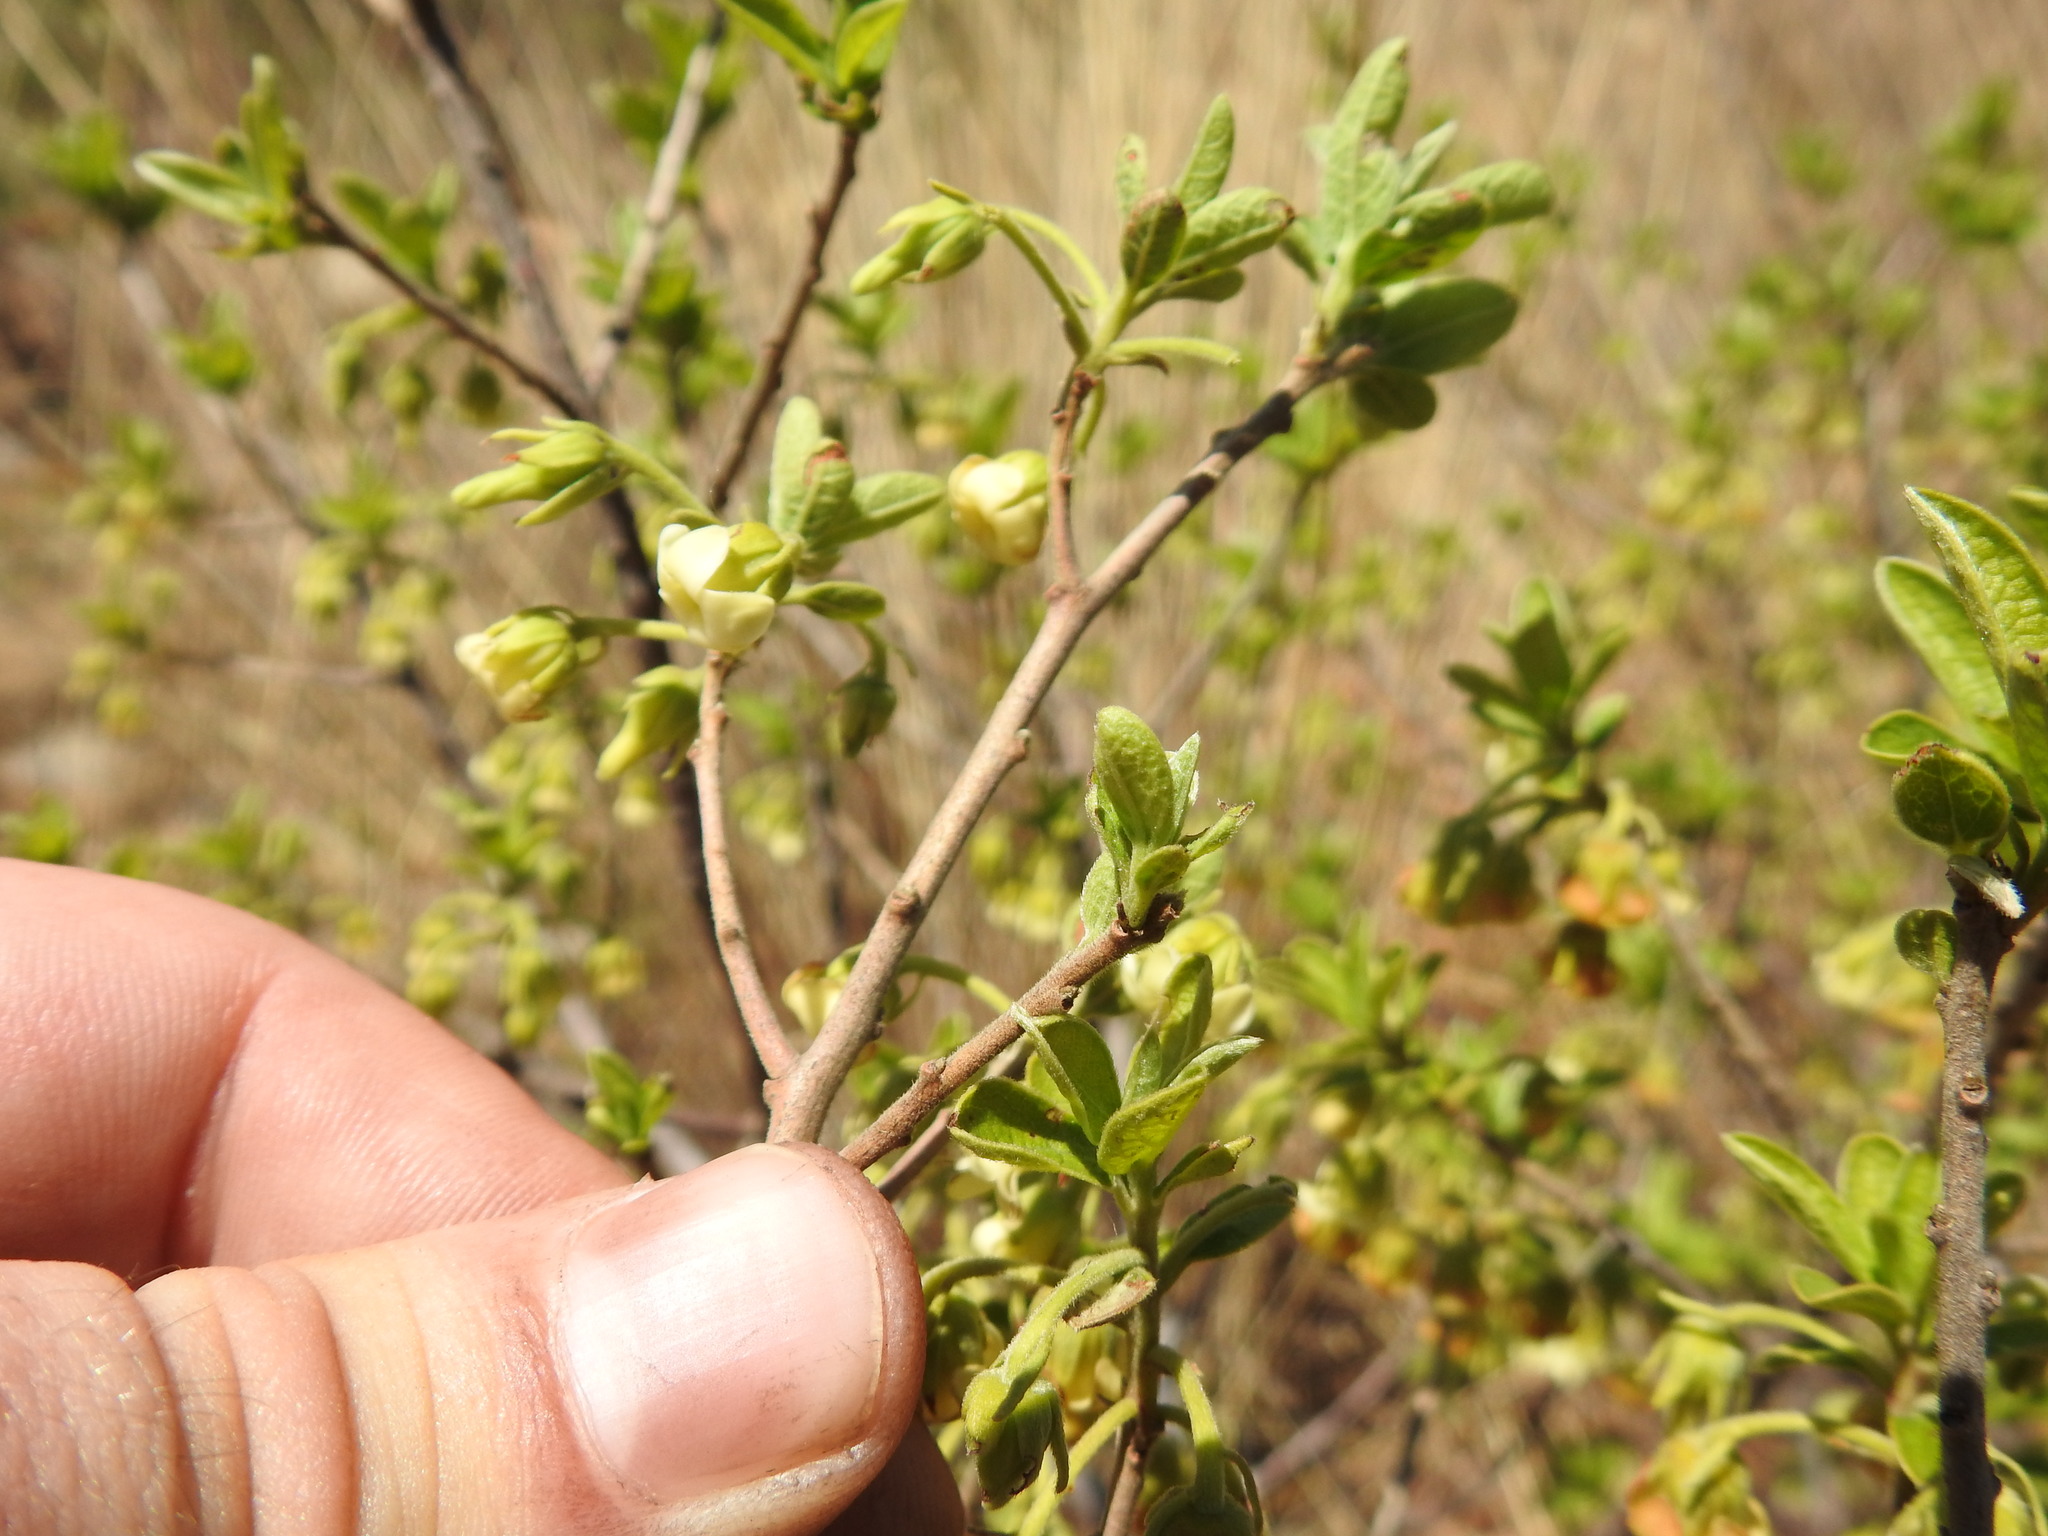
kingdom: Plantae
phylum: Tracheophyta
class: Magnoliopsida
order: Ericales
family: Ebenaceae
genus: Diospyros
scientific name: Diospyros lycioides
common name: Red star apple
